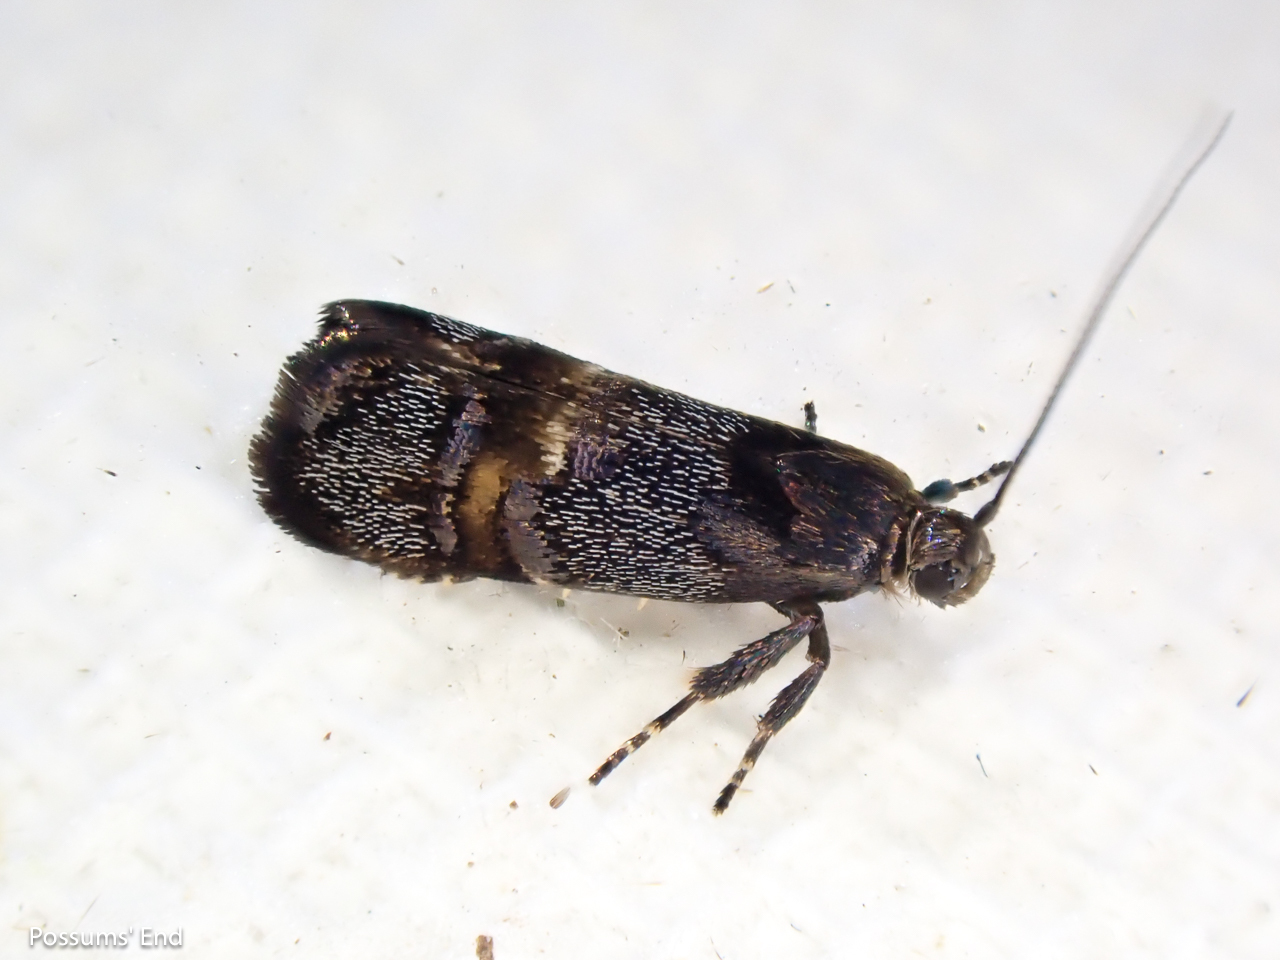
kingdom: Animalia
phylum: Arthropoda
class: Insecta
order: Lepidoptera
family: Oecophoridae
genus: Hierodoris
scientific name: Hierodoris torrida
